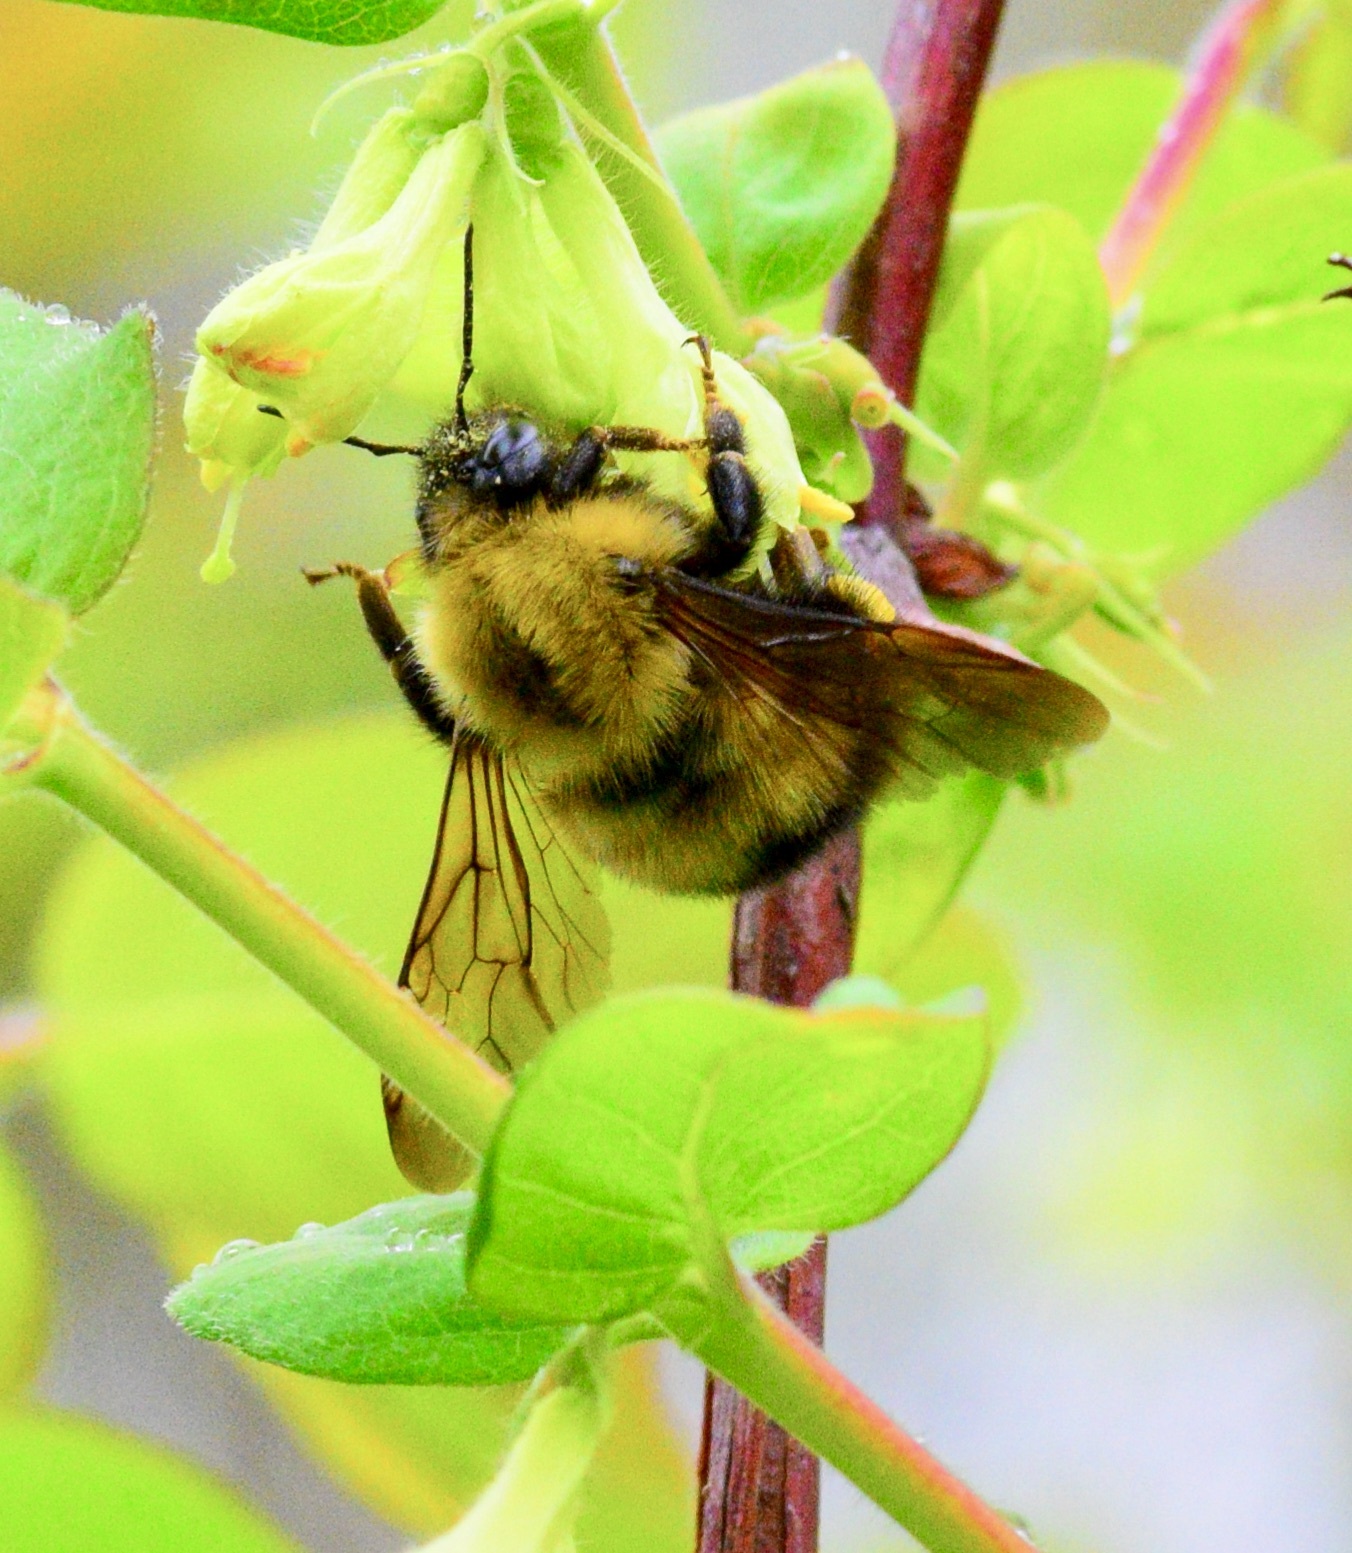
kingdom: Animalia
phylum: Arthropoda
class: Insecta
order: Hymenoptera
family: Apidae
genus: Bombus
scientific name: Bombus perplexus
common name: Confusing bumble bee
